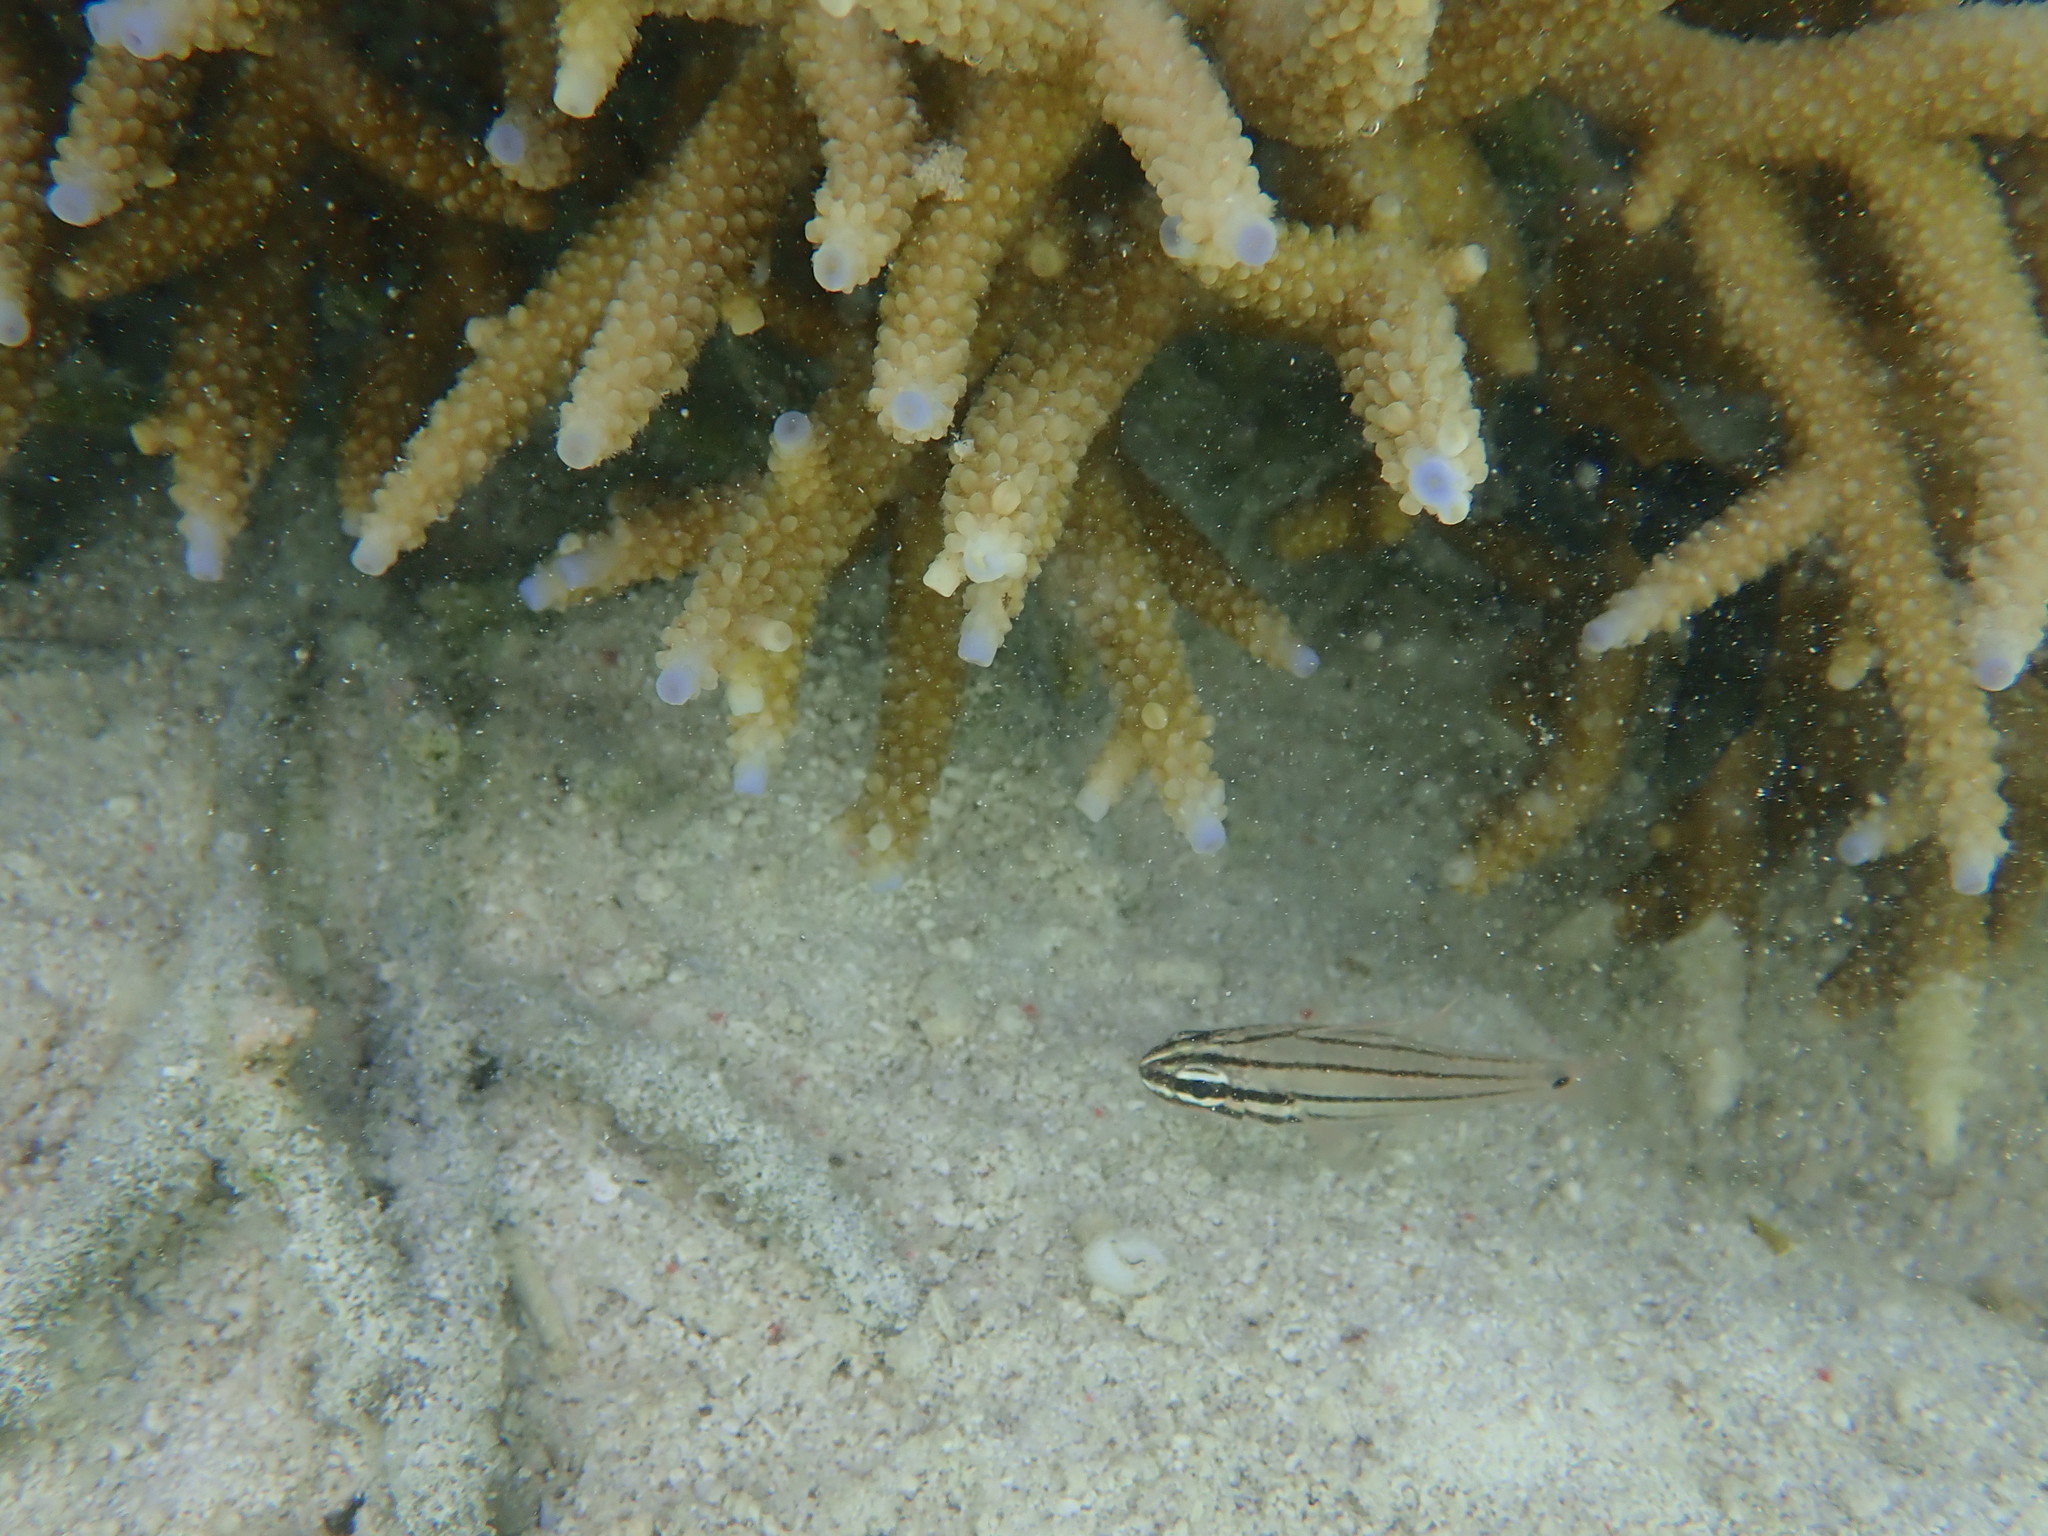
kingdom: Animalia
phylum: Chordata
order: Perciformes
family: Apogonidae
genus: Ostorhinchus
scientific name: Ostorhinchus doederleini
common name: Doederlein's cardinalfish
